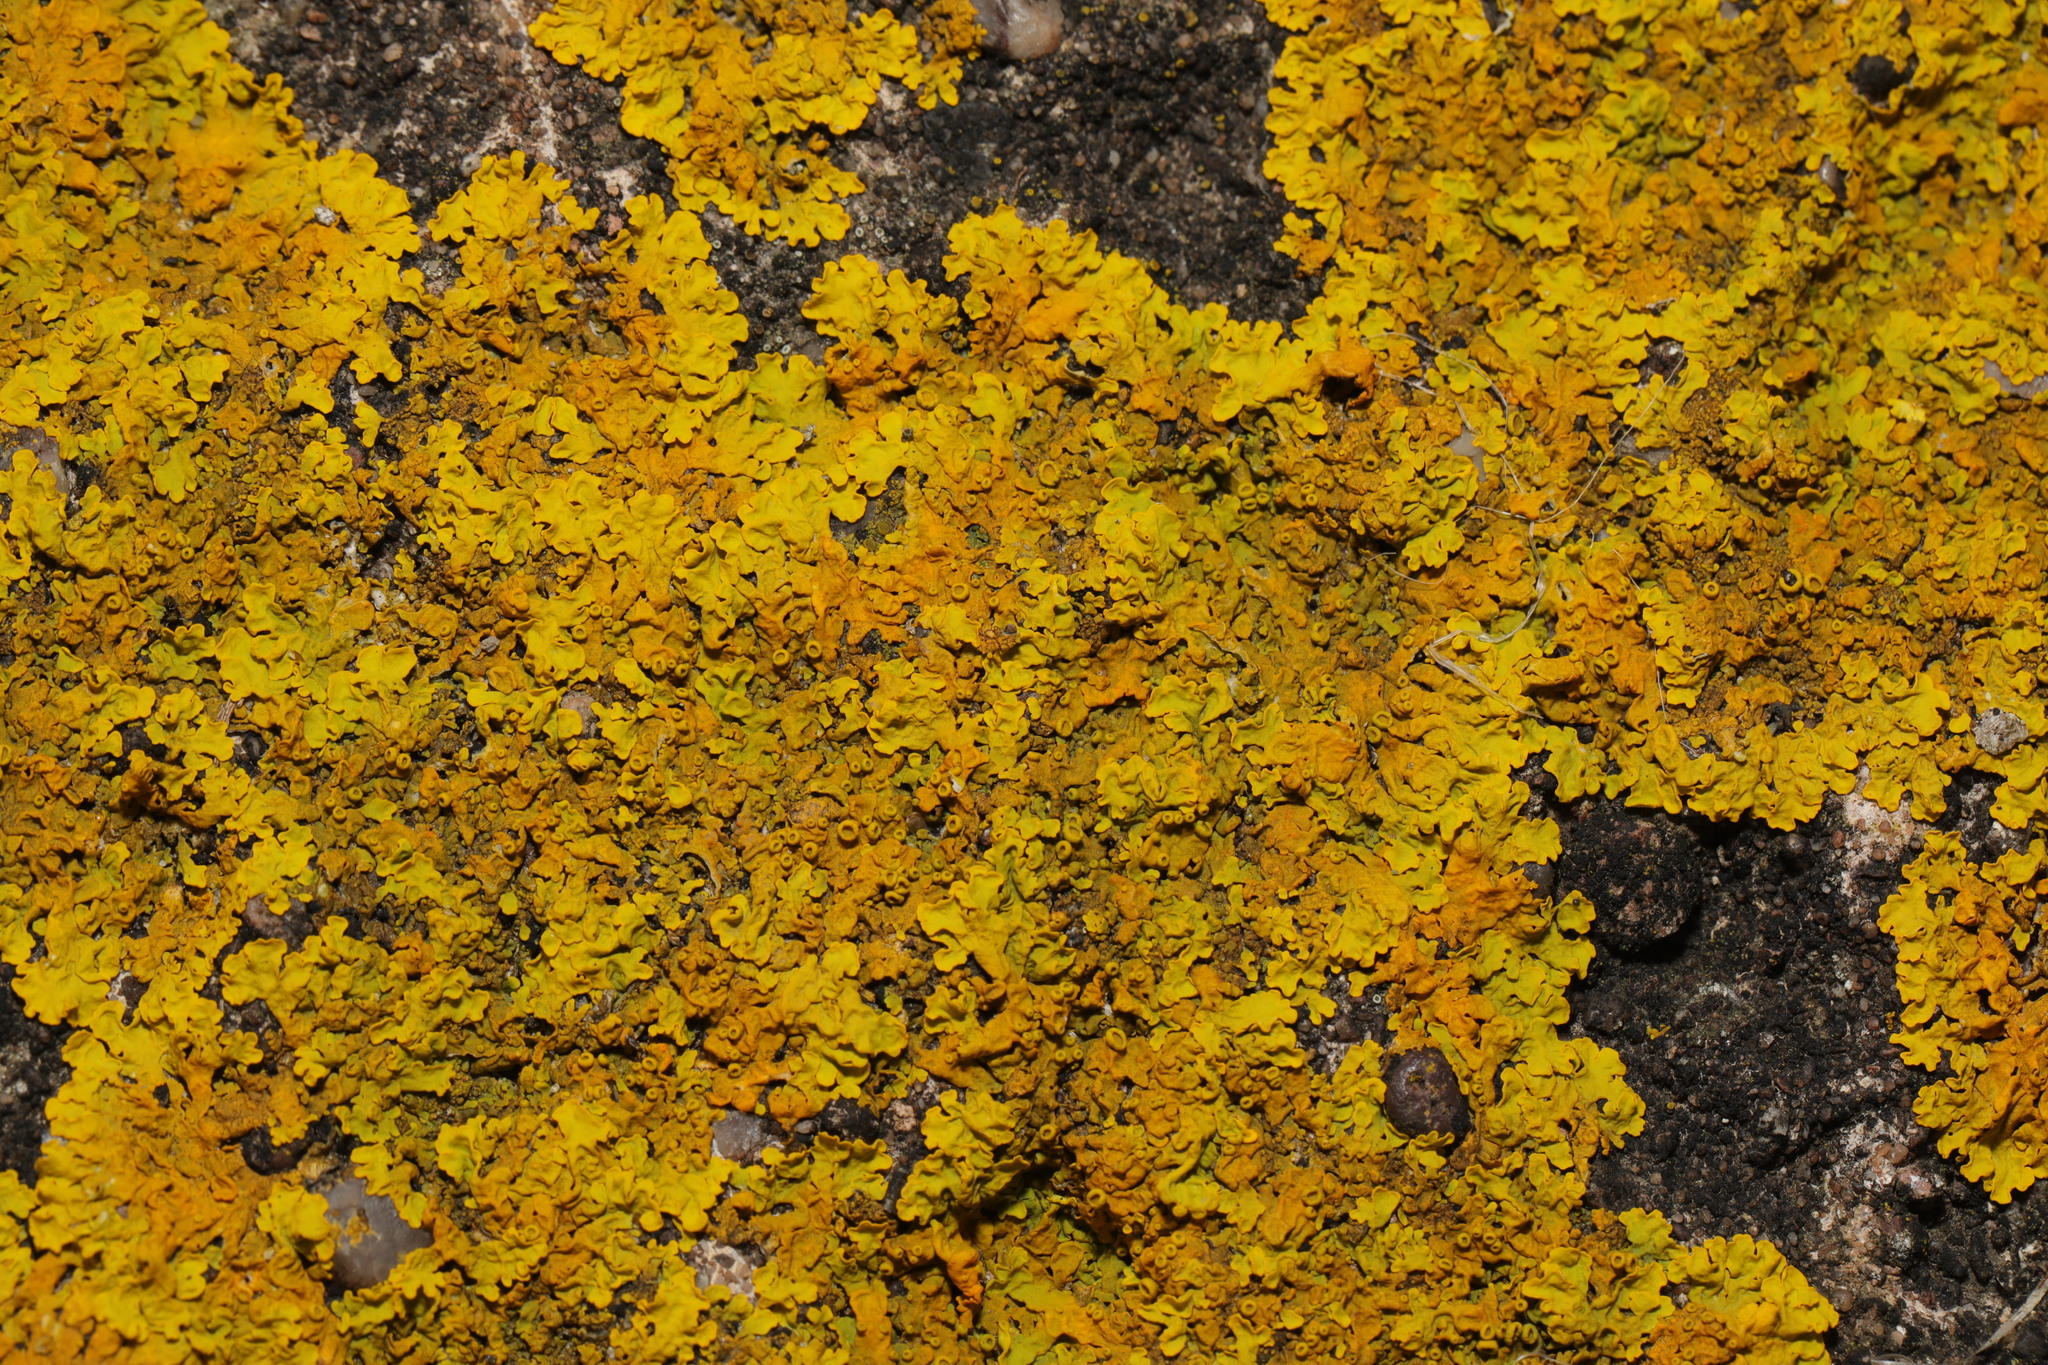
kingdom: Fungi
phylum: Ascomycota
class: Lecanoromycetes
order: Teloschistales
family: Teloschistaceae
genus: Xanthoria
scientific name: Xanthoria parietina
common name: Common orange lichen
